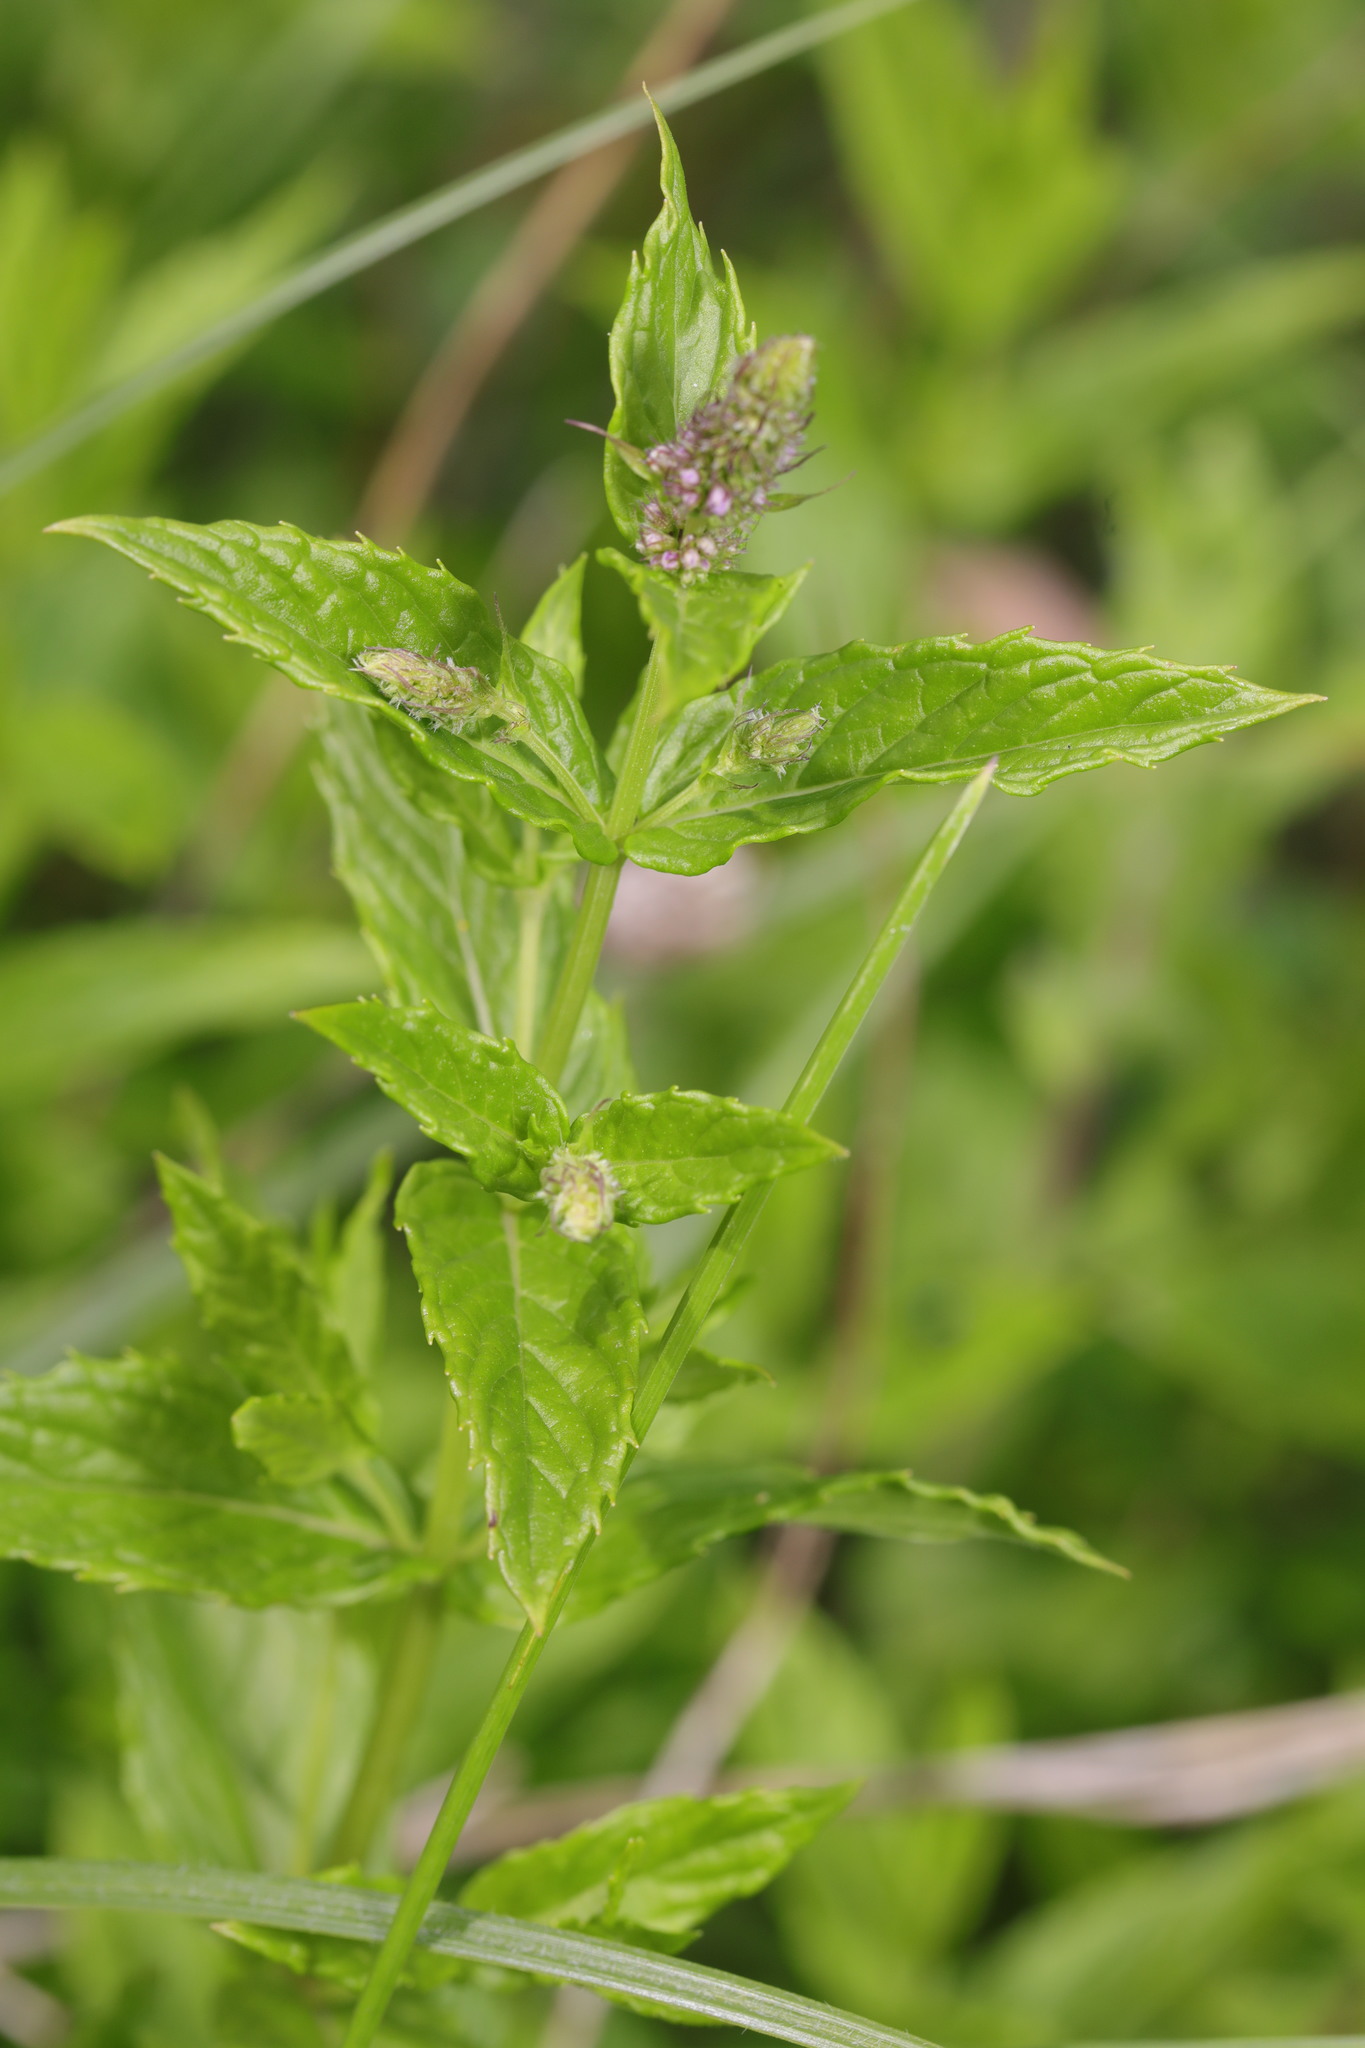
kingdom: Plantae
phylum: Tracheophyta
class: Magnoliopsida
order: Lamiales
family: Lamiaceae
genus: Mentha
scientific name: Mentha spicata
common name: Spearmint
